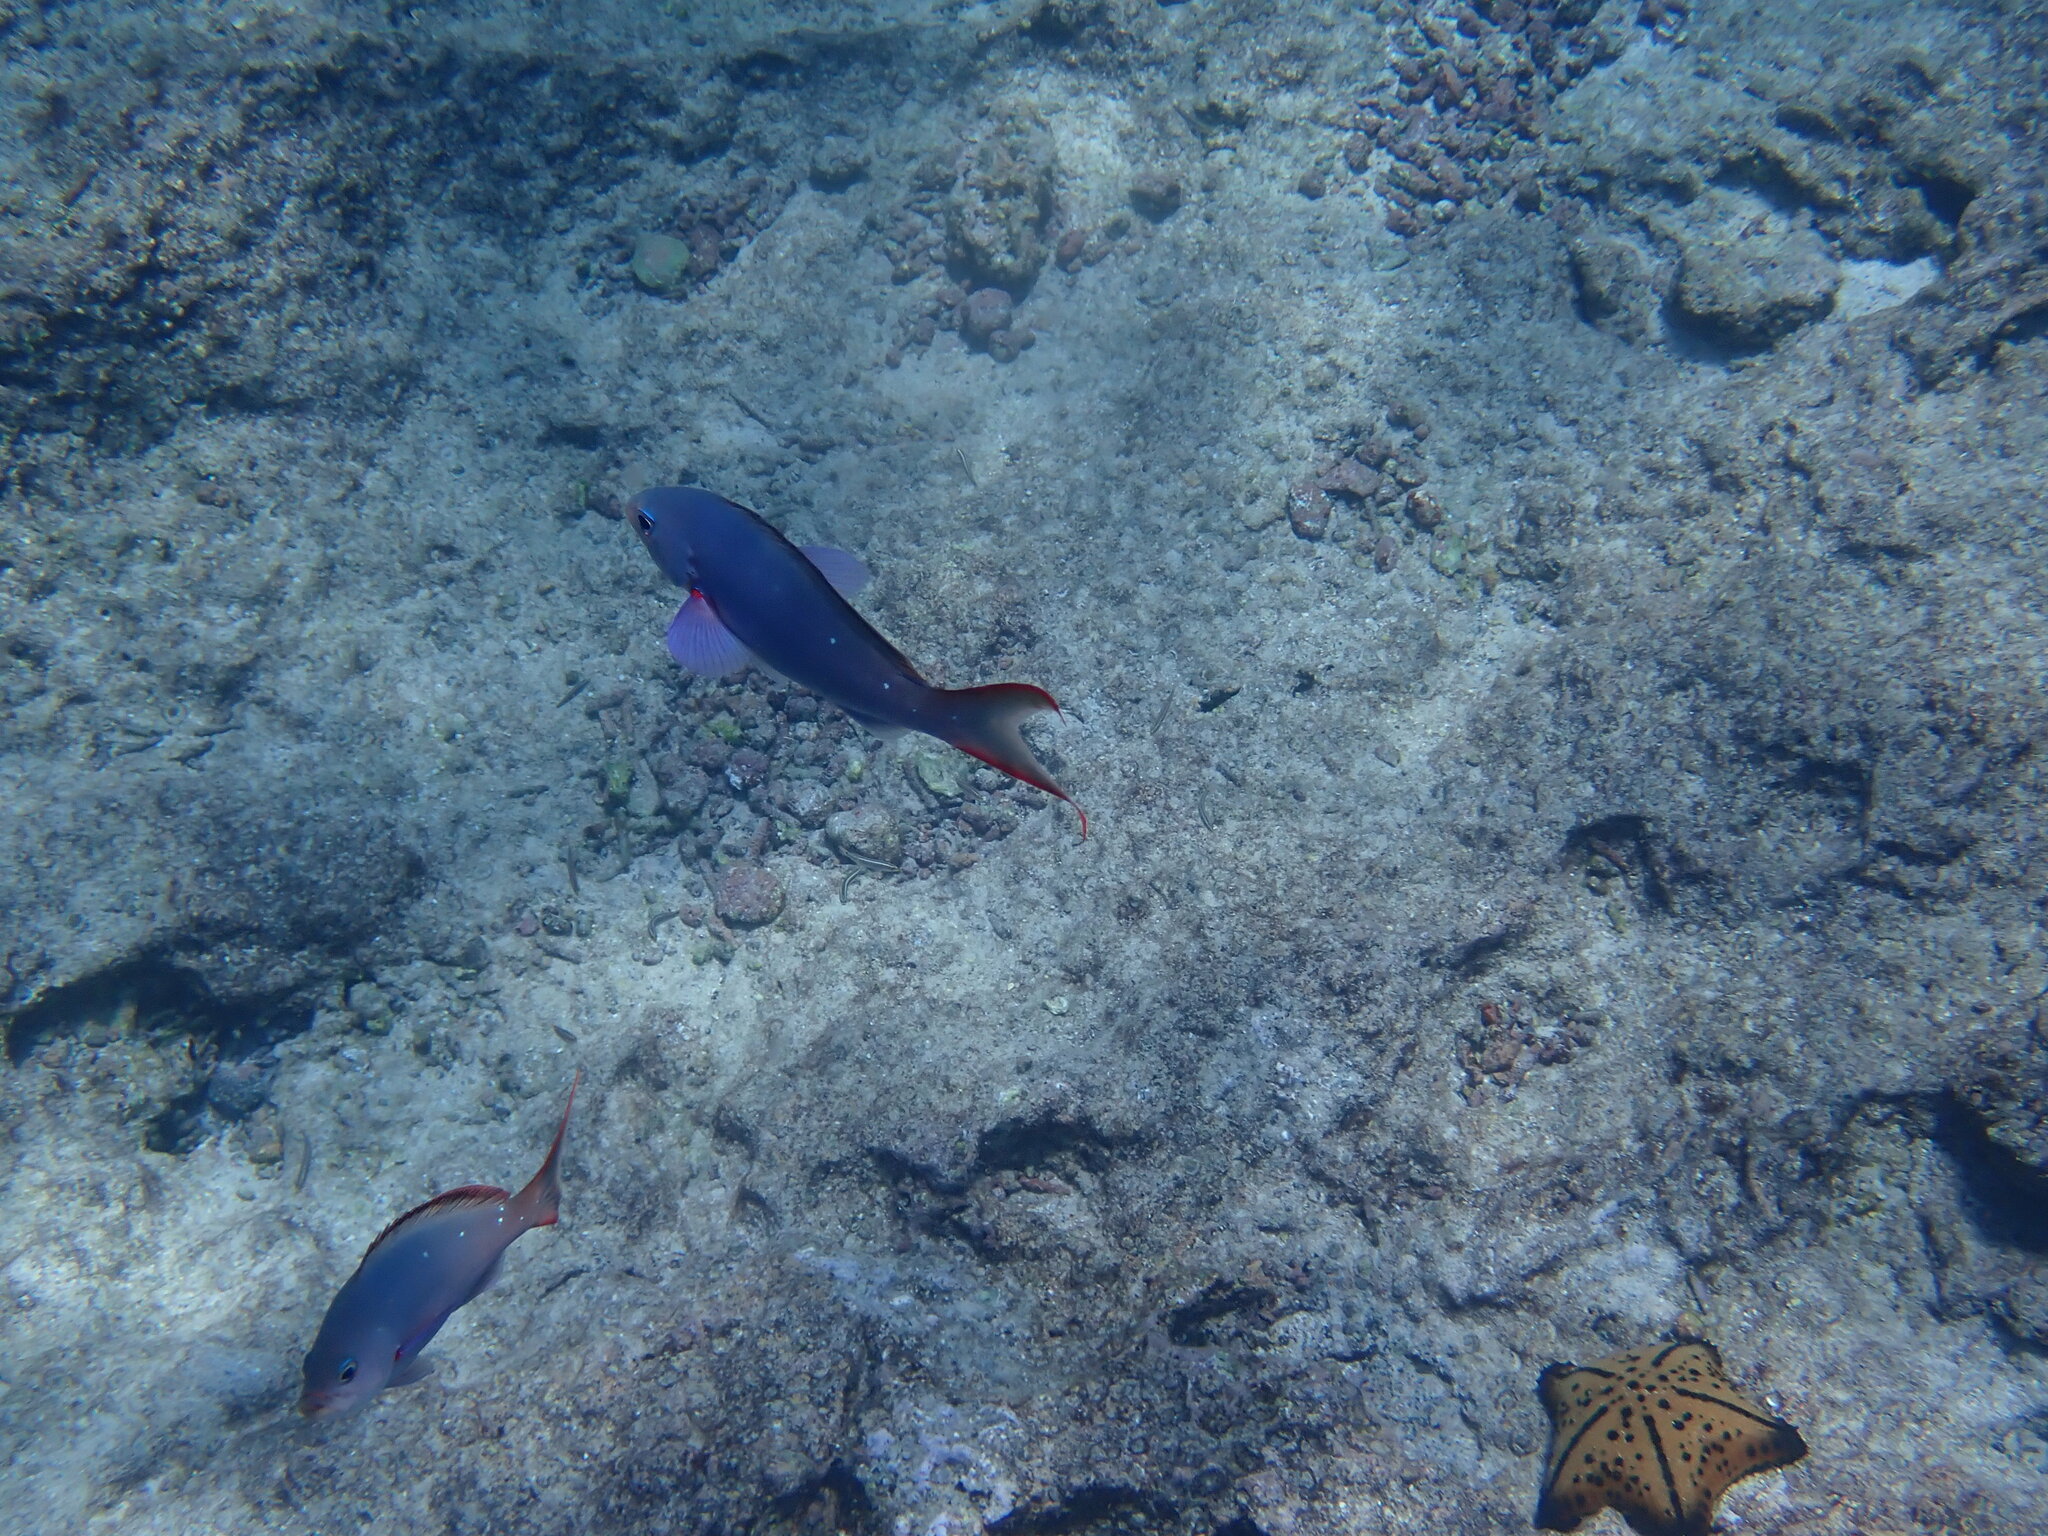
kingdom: Animalia
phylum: Chordata
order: Perciformes
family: Serranidae
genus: Paranthias
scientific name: Paranthias colonus
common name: Pacific creole-fish
